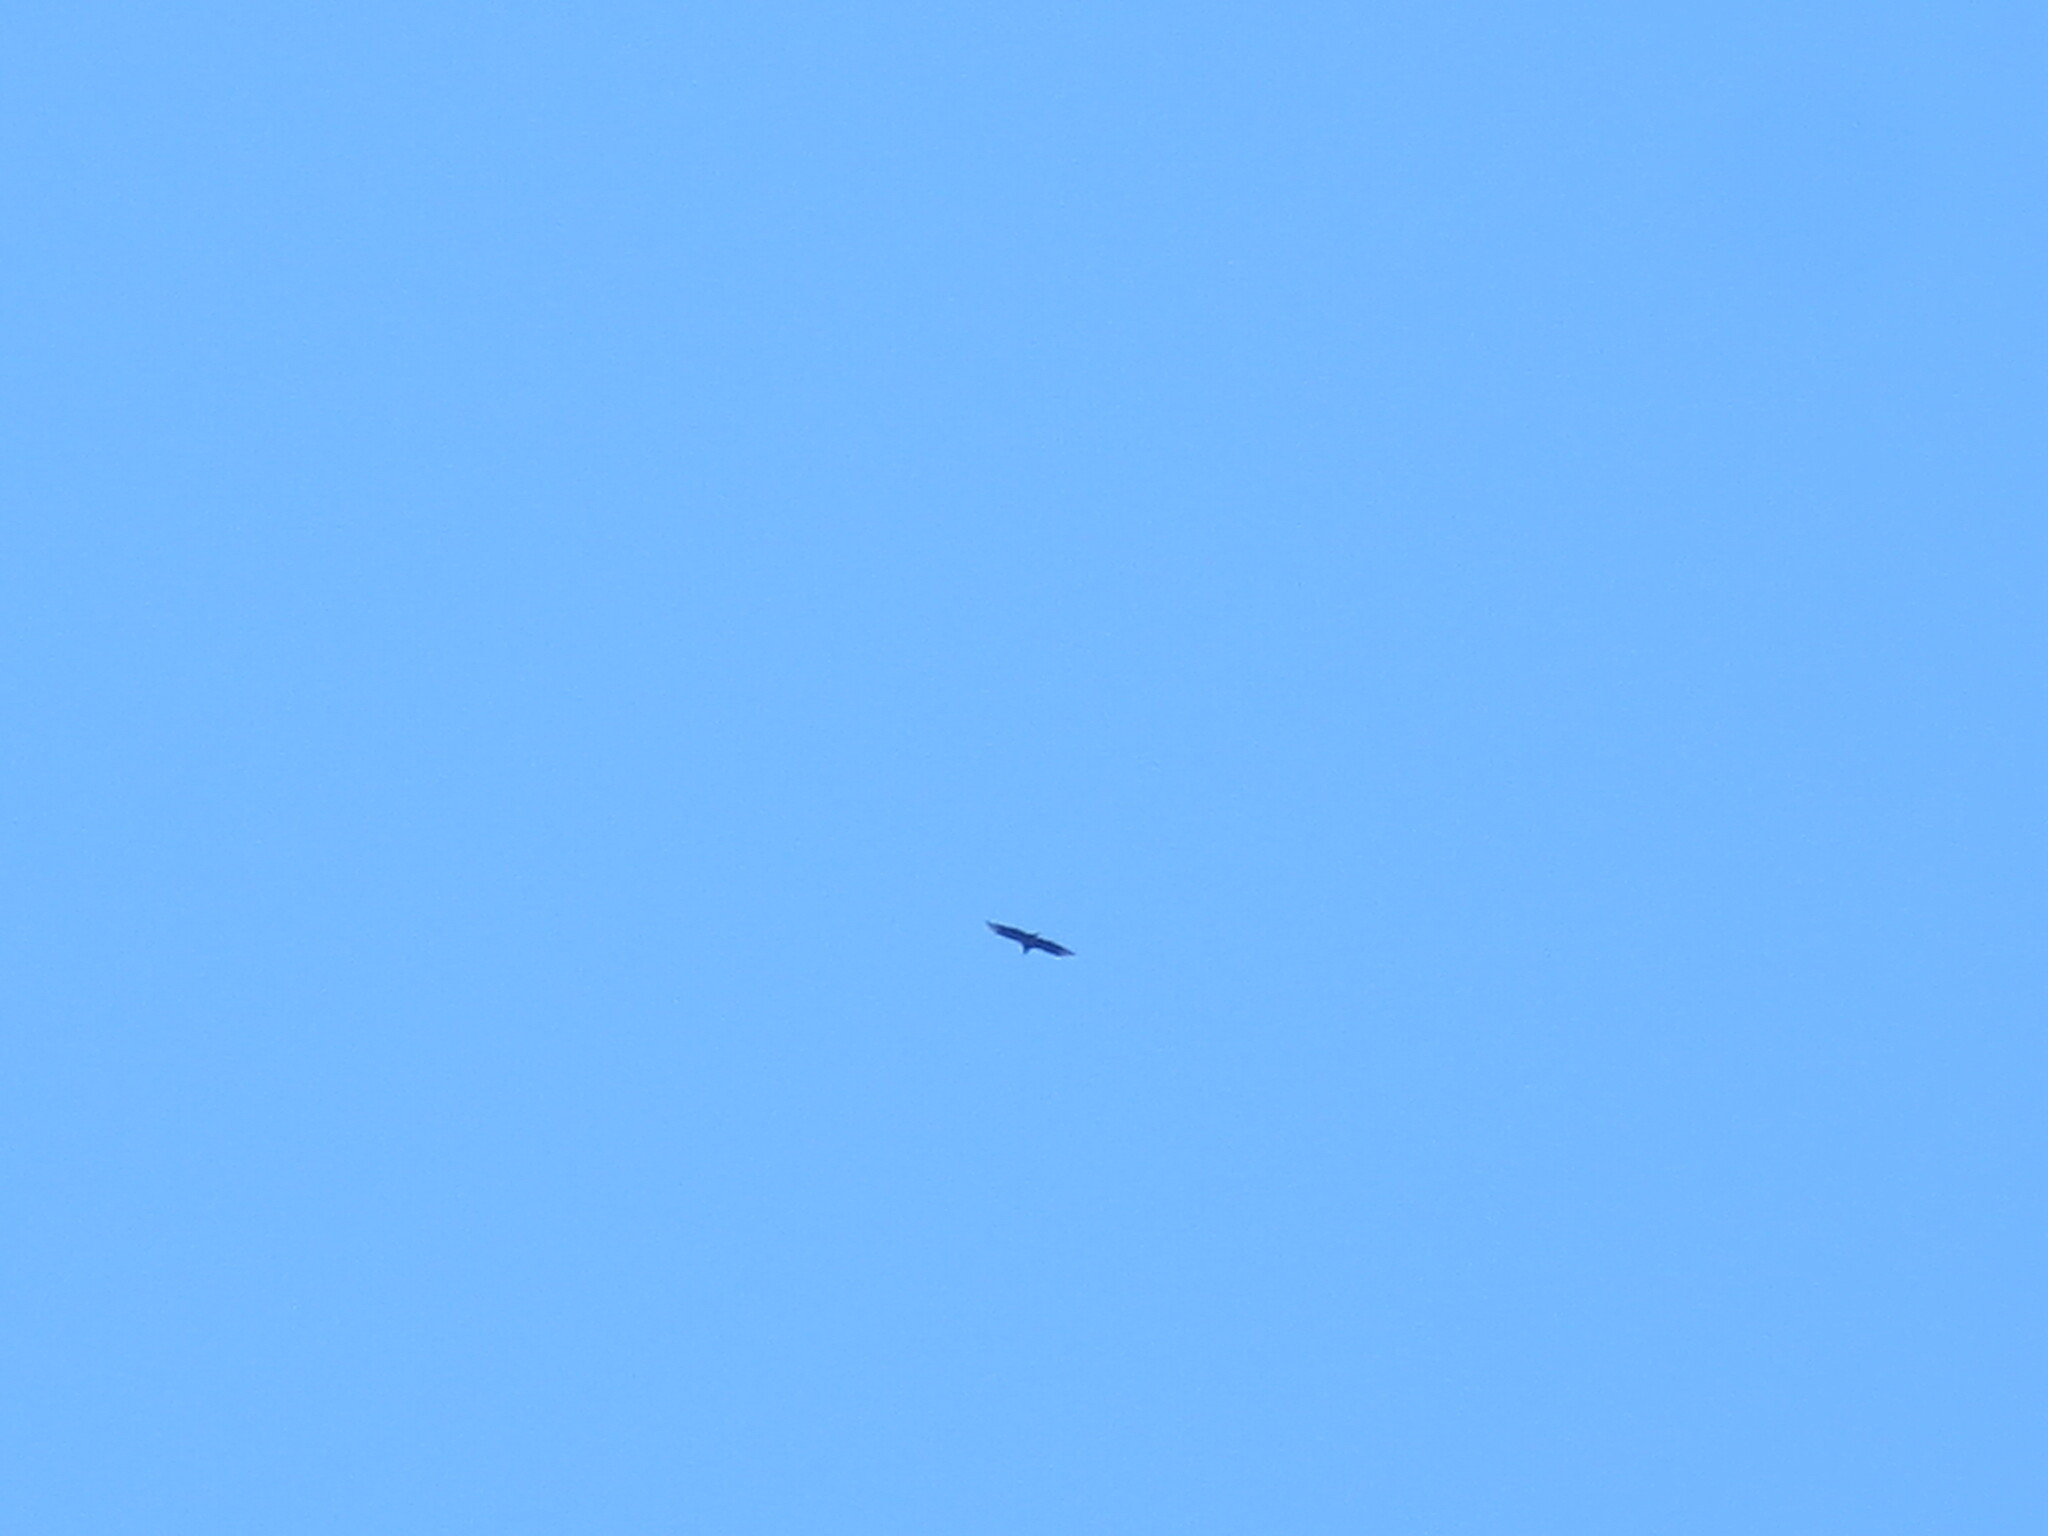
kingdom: Animalia
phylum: Chordata
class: Aves
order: Accipitriformes
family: Cathartidae
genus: Coragyps
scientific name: Coragyps atratus
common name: Black vulture
